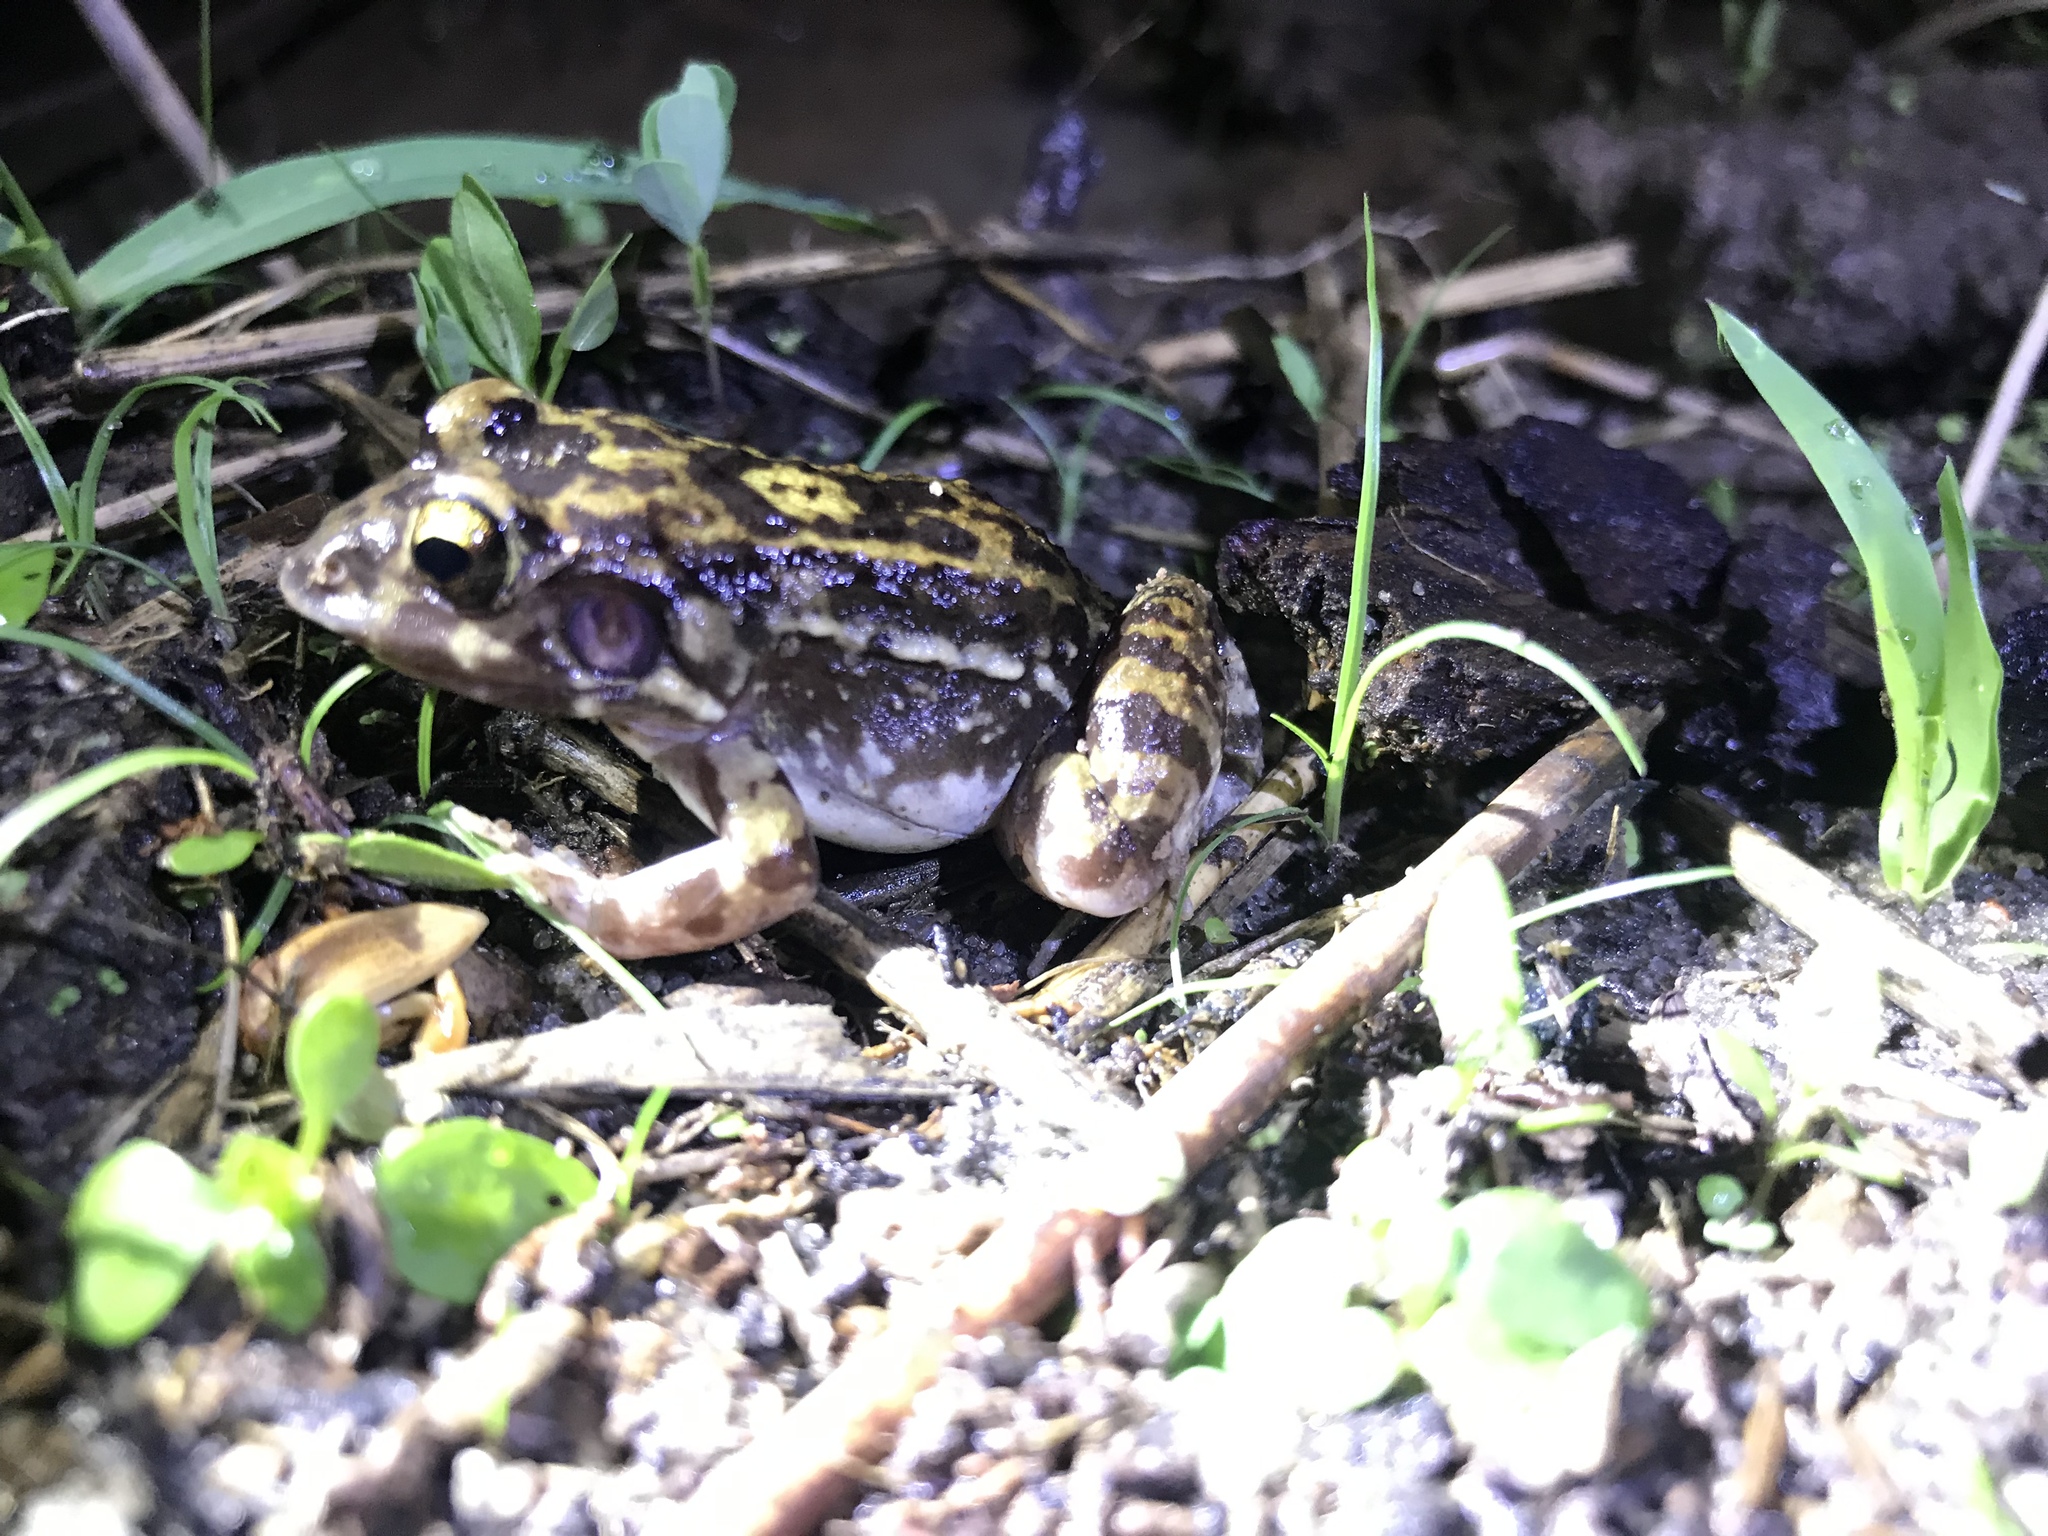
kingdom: Animalia
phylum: Chordata
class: Amphibia
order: Anura
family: Leptodactylidae
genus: Leptodactylus
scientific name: Leptodactylus troglodytes
